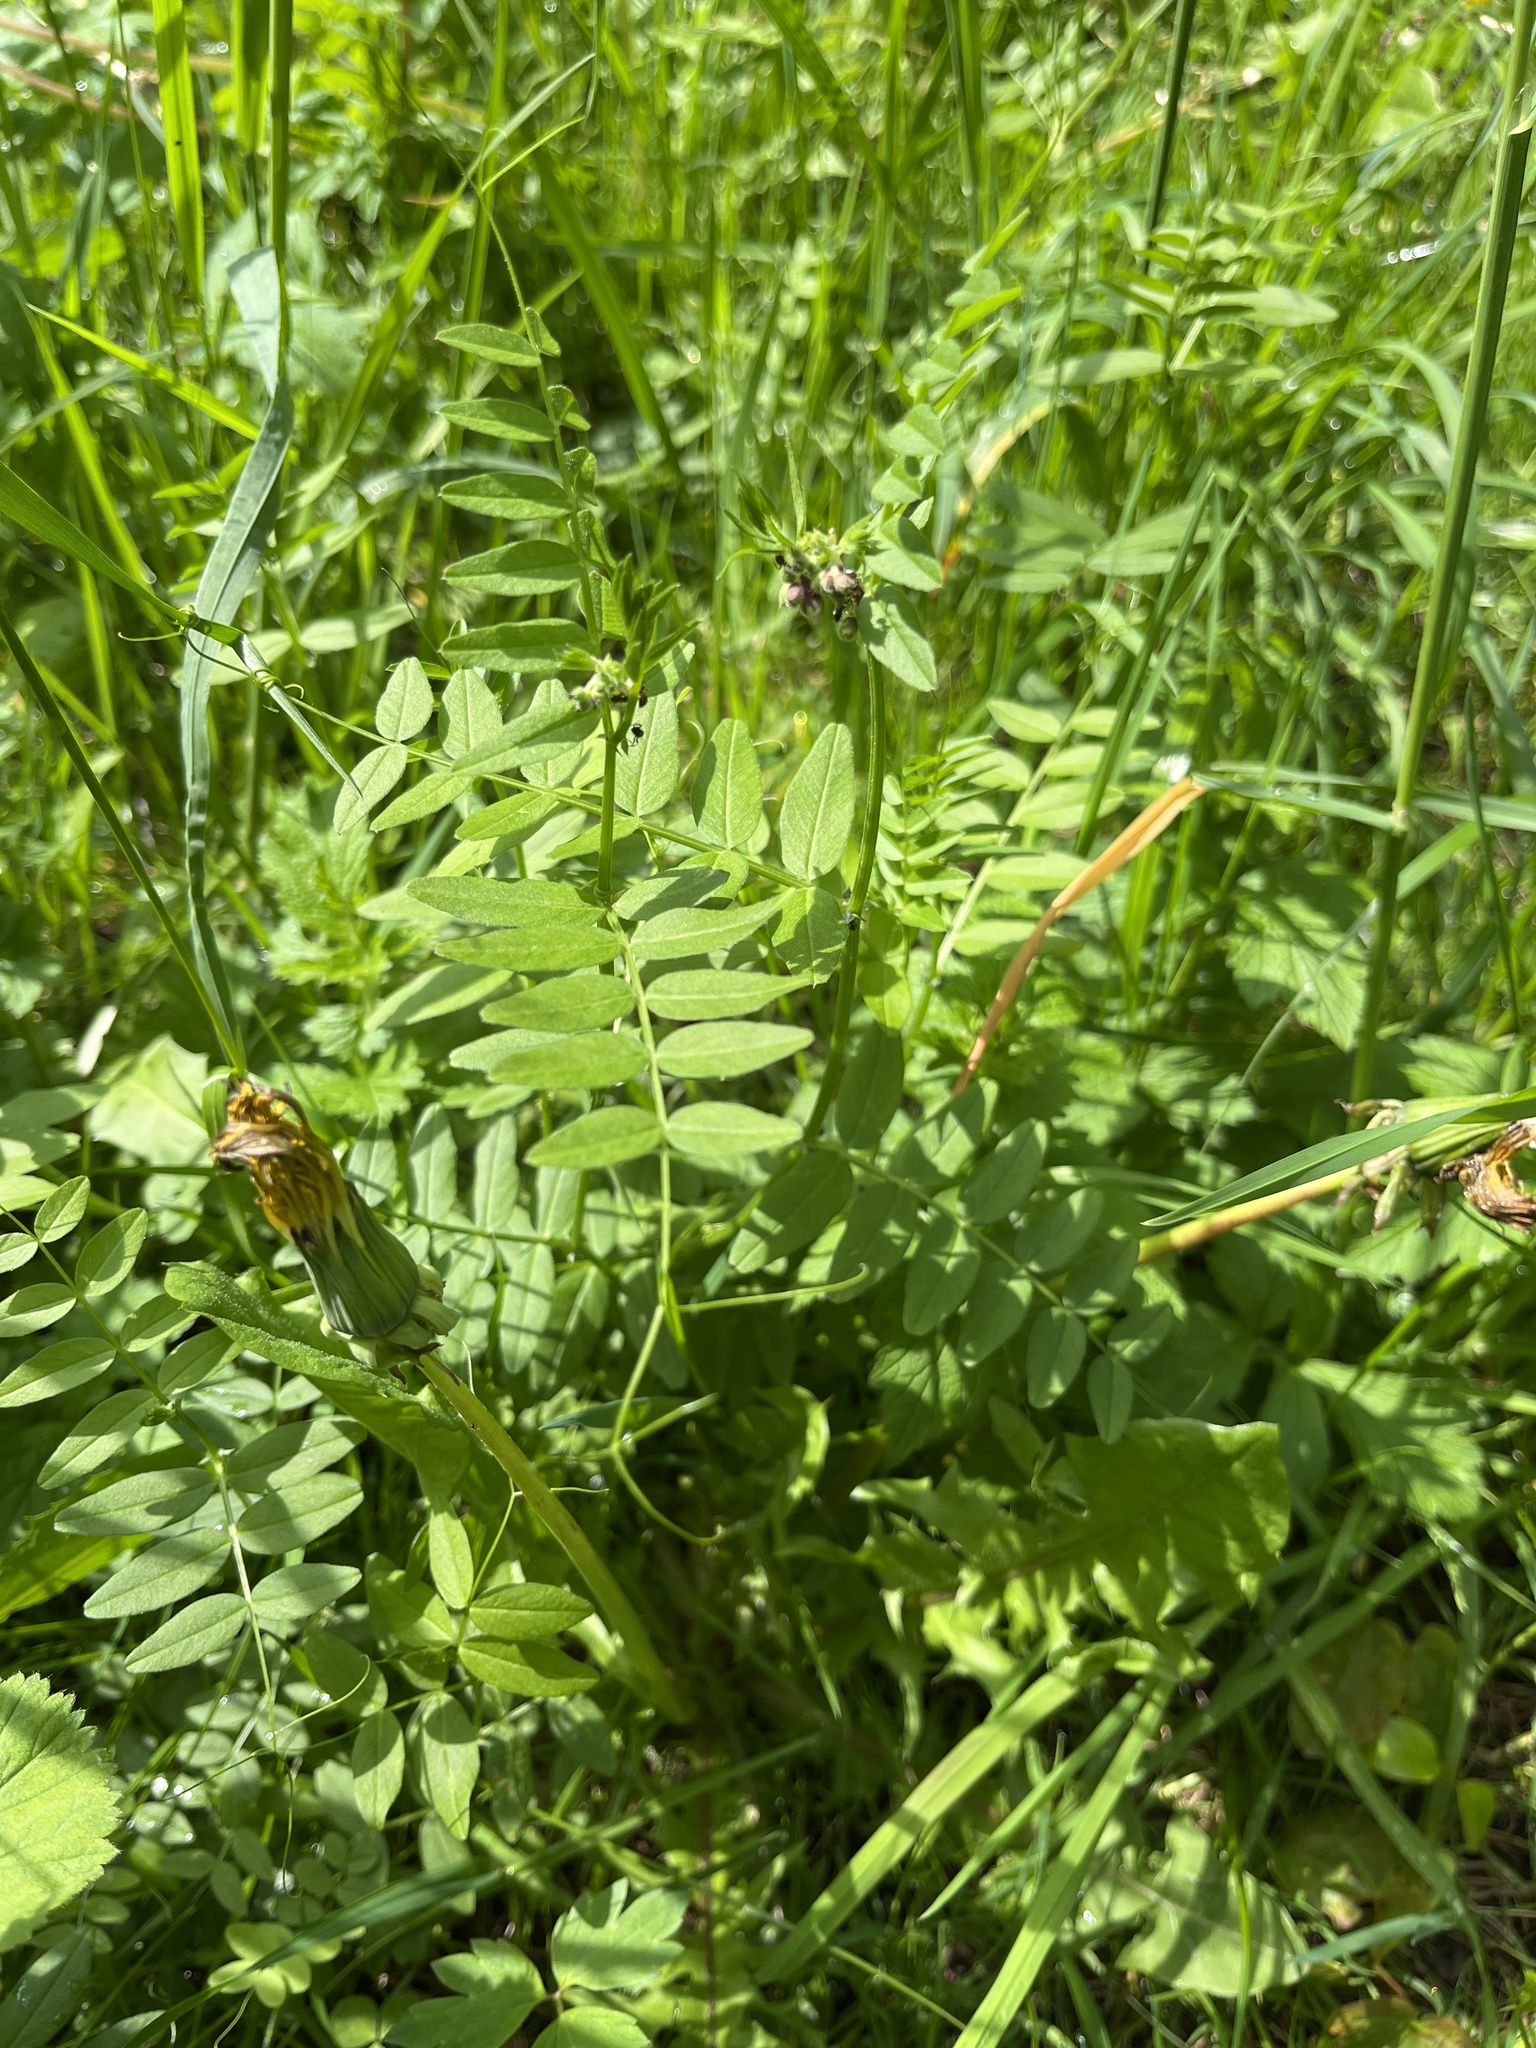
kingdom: Plantae
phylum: Tracheophyta
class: Magnoliopsida
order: Fabales
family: Fabaceae
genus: Vicia
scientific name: Vicia sepium
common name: Bush vetch
